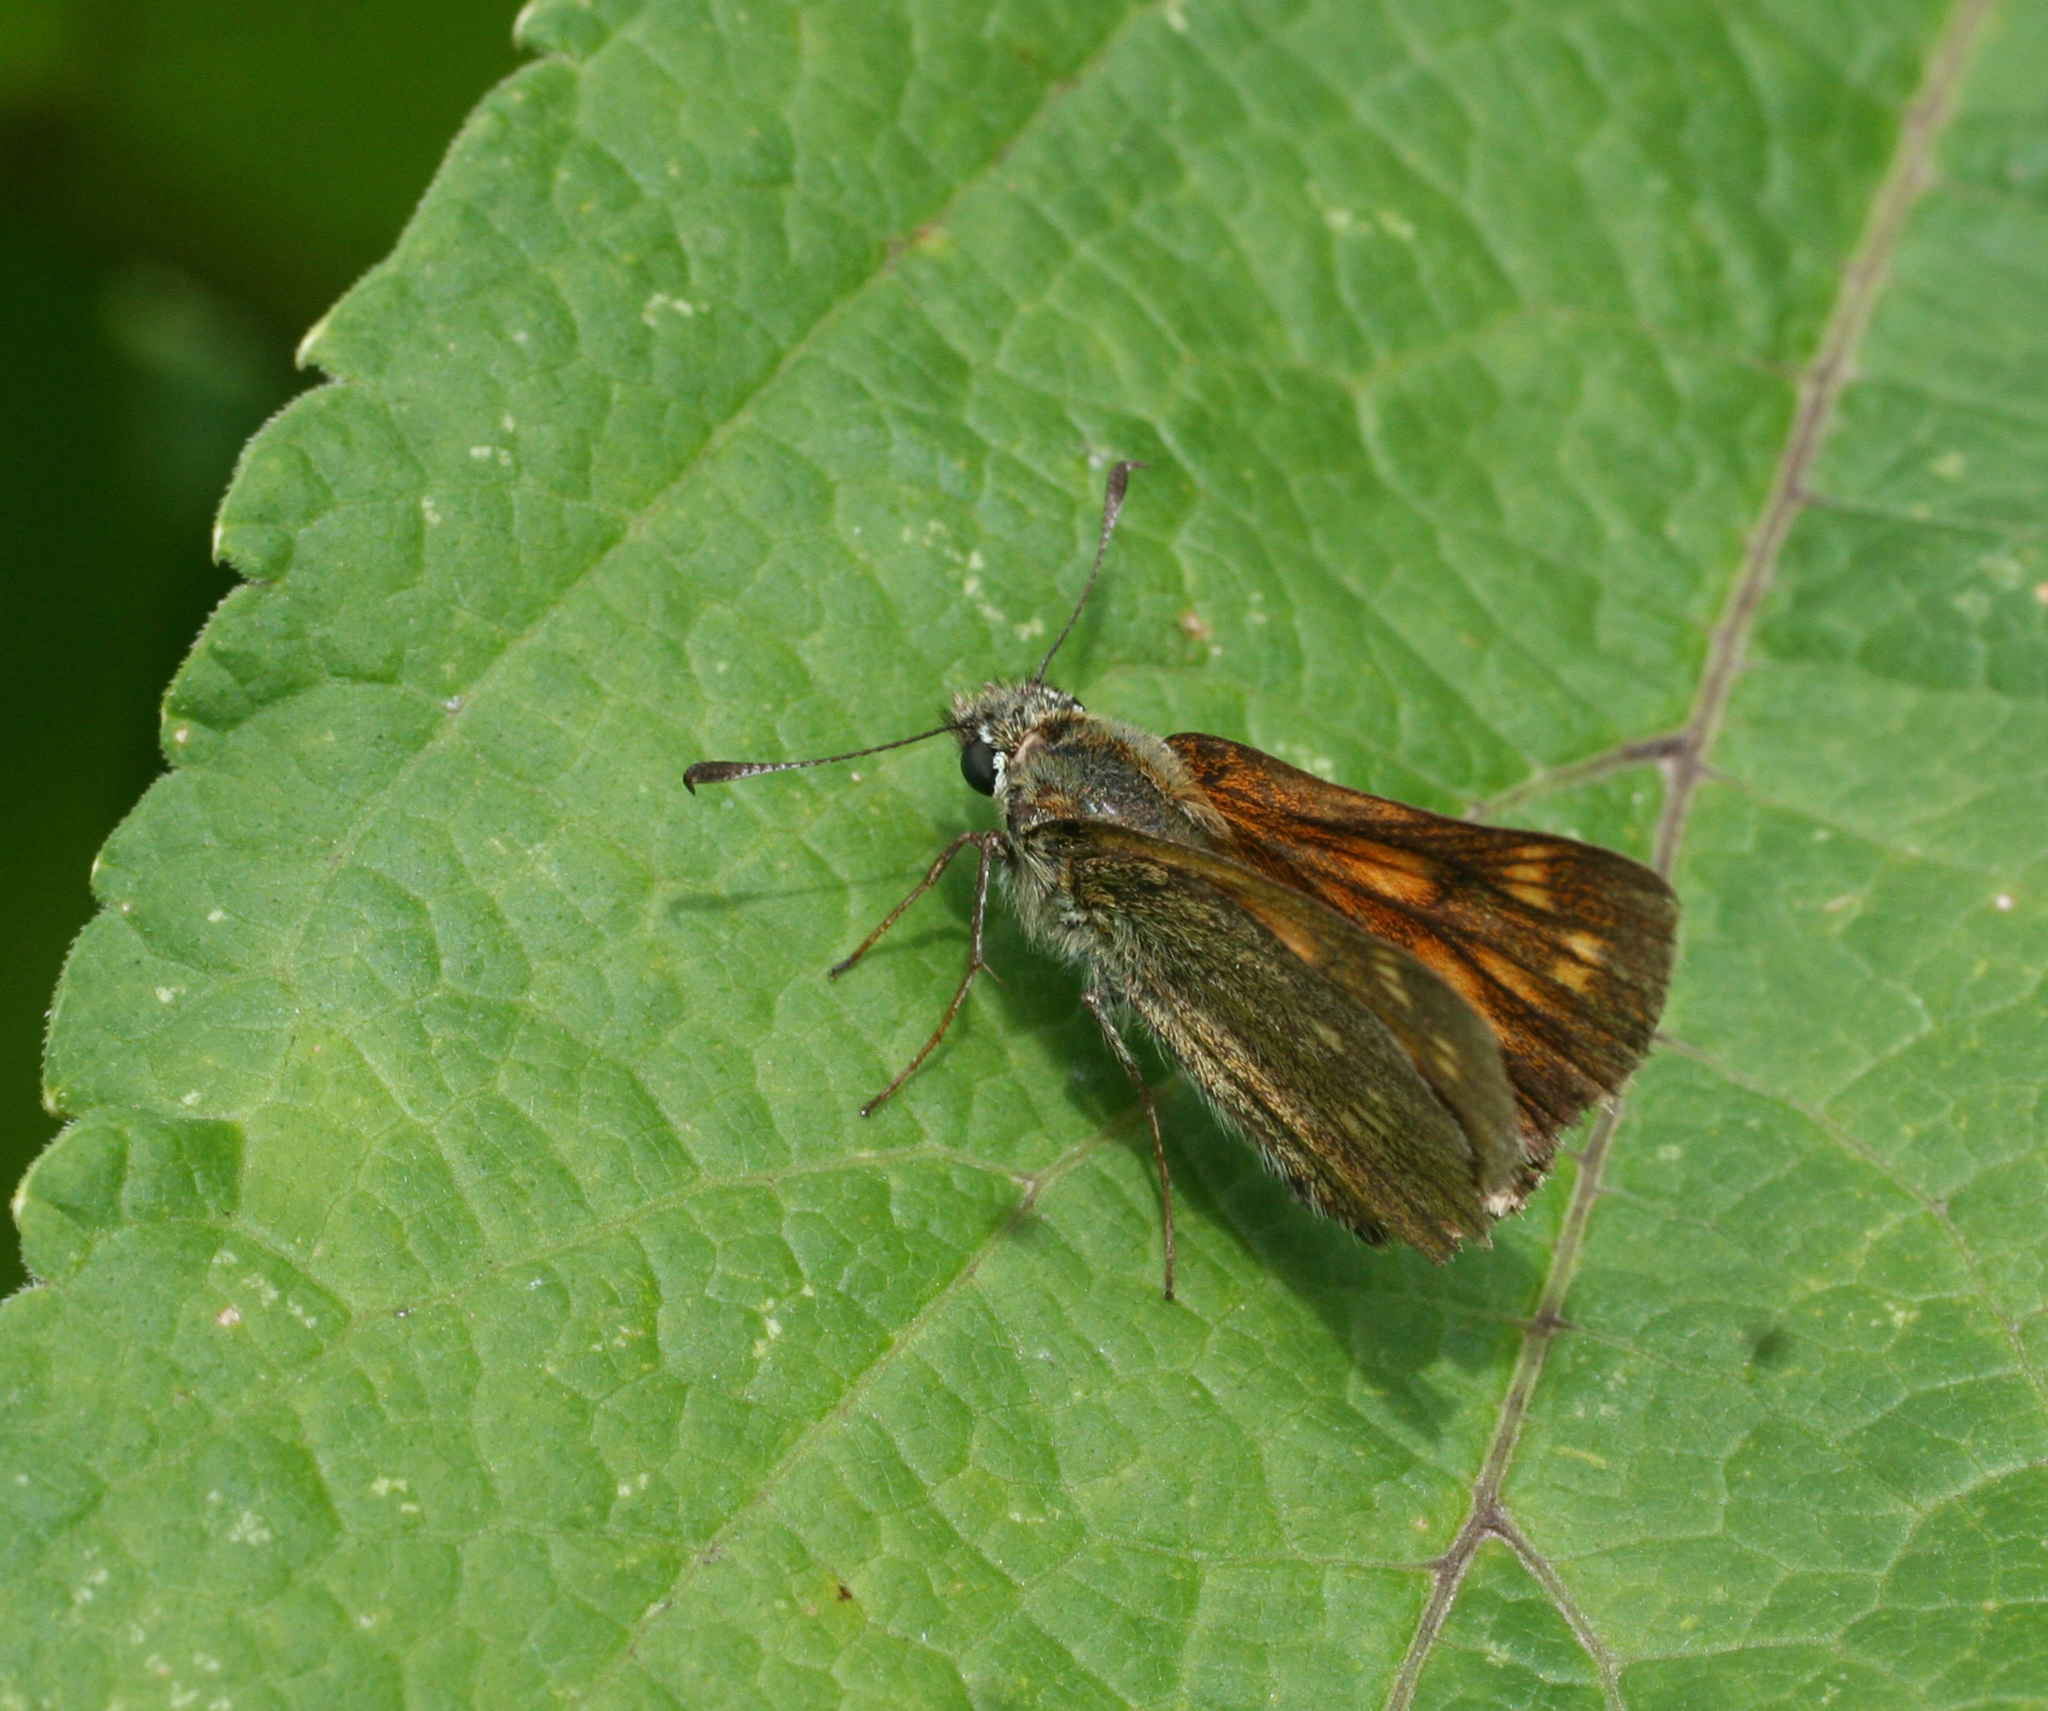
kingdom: Animalia
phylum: Arthropoda
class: Insecta
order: Lepidoptera
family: Hesperiidae
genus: Ochlodes
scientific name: Ochlodes venata
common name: Large skipper
